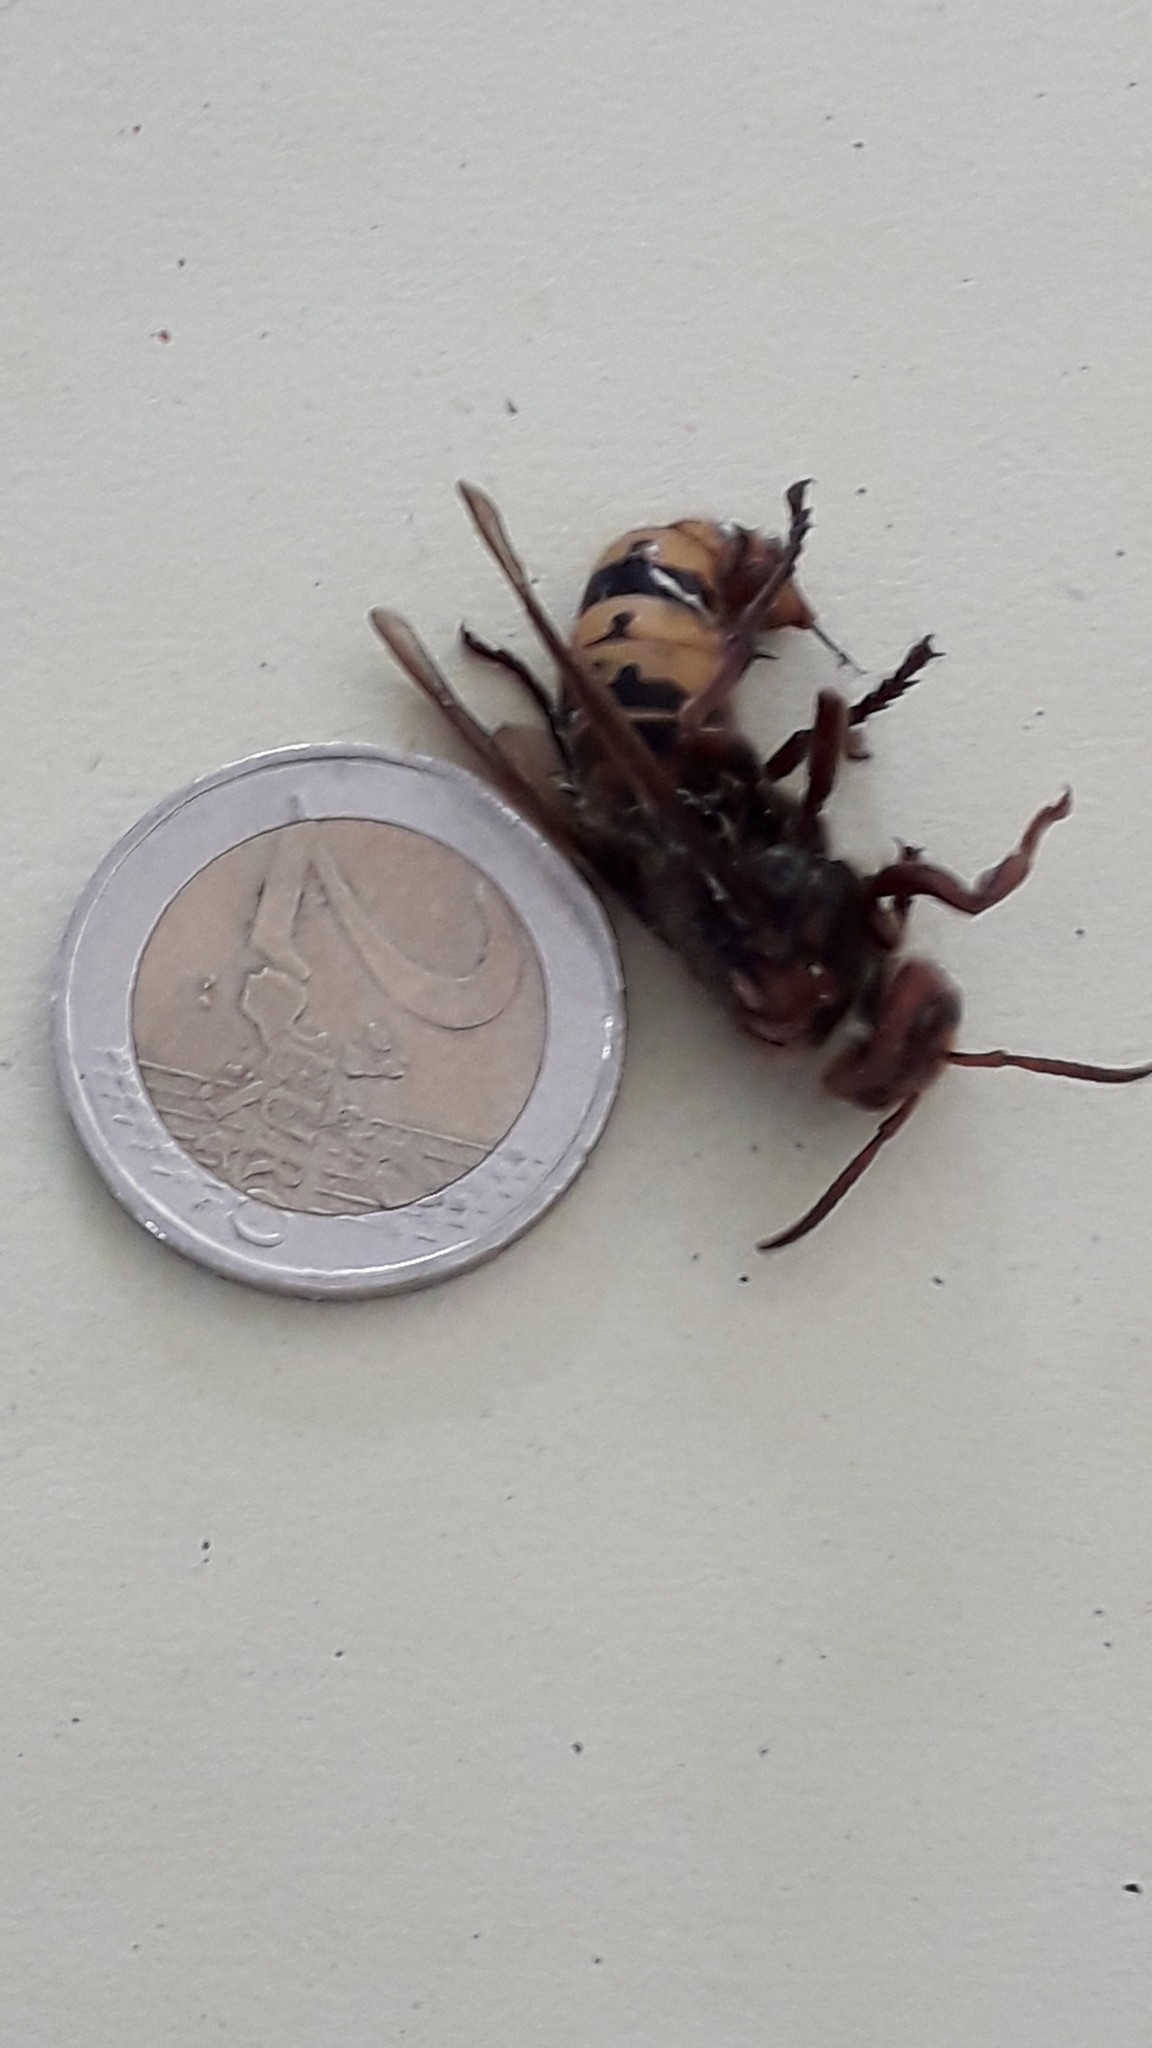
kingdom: Animalia
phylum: Arthropoda
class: Insecta
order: Hymenoptera
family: Vespidae
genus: Vespa
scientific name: Vespa crabro
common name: Hornet
